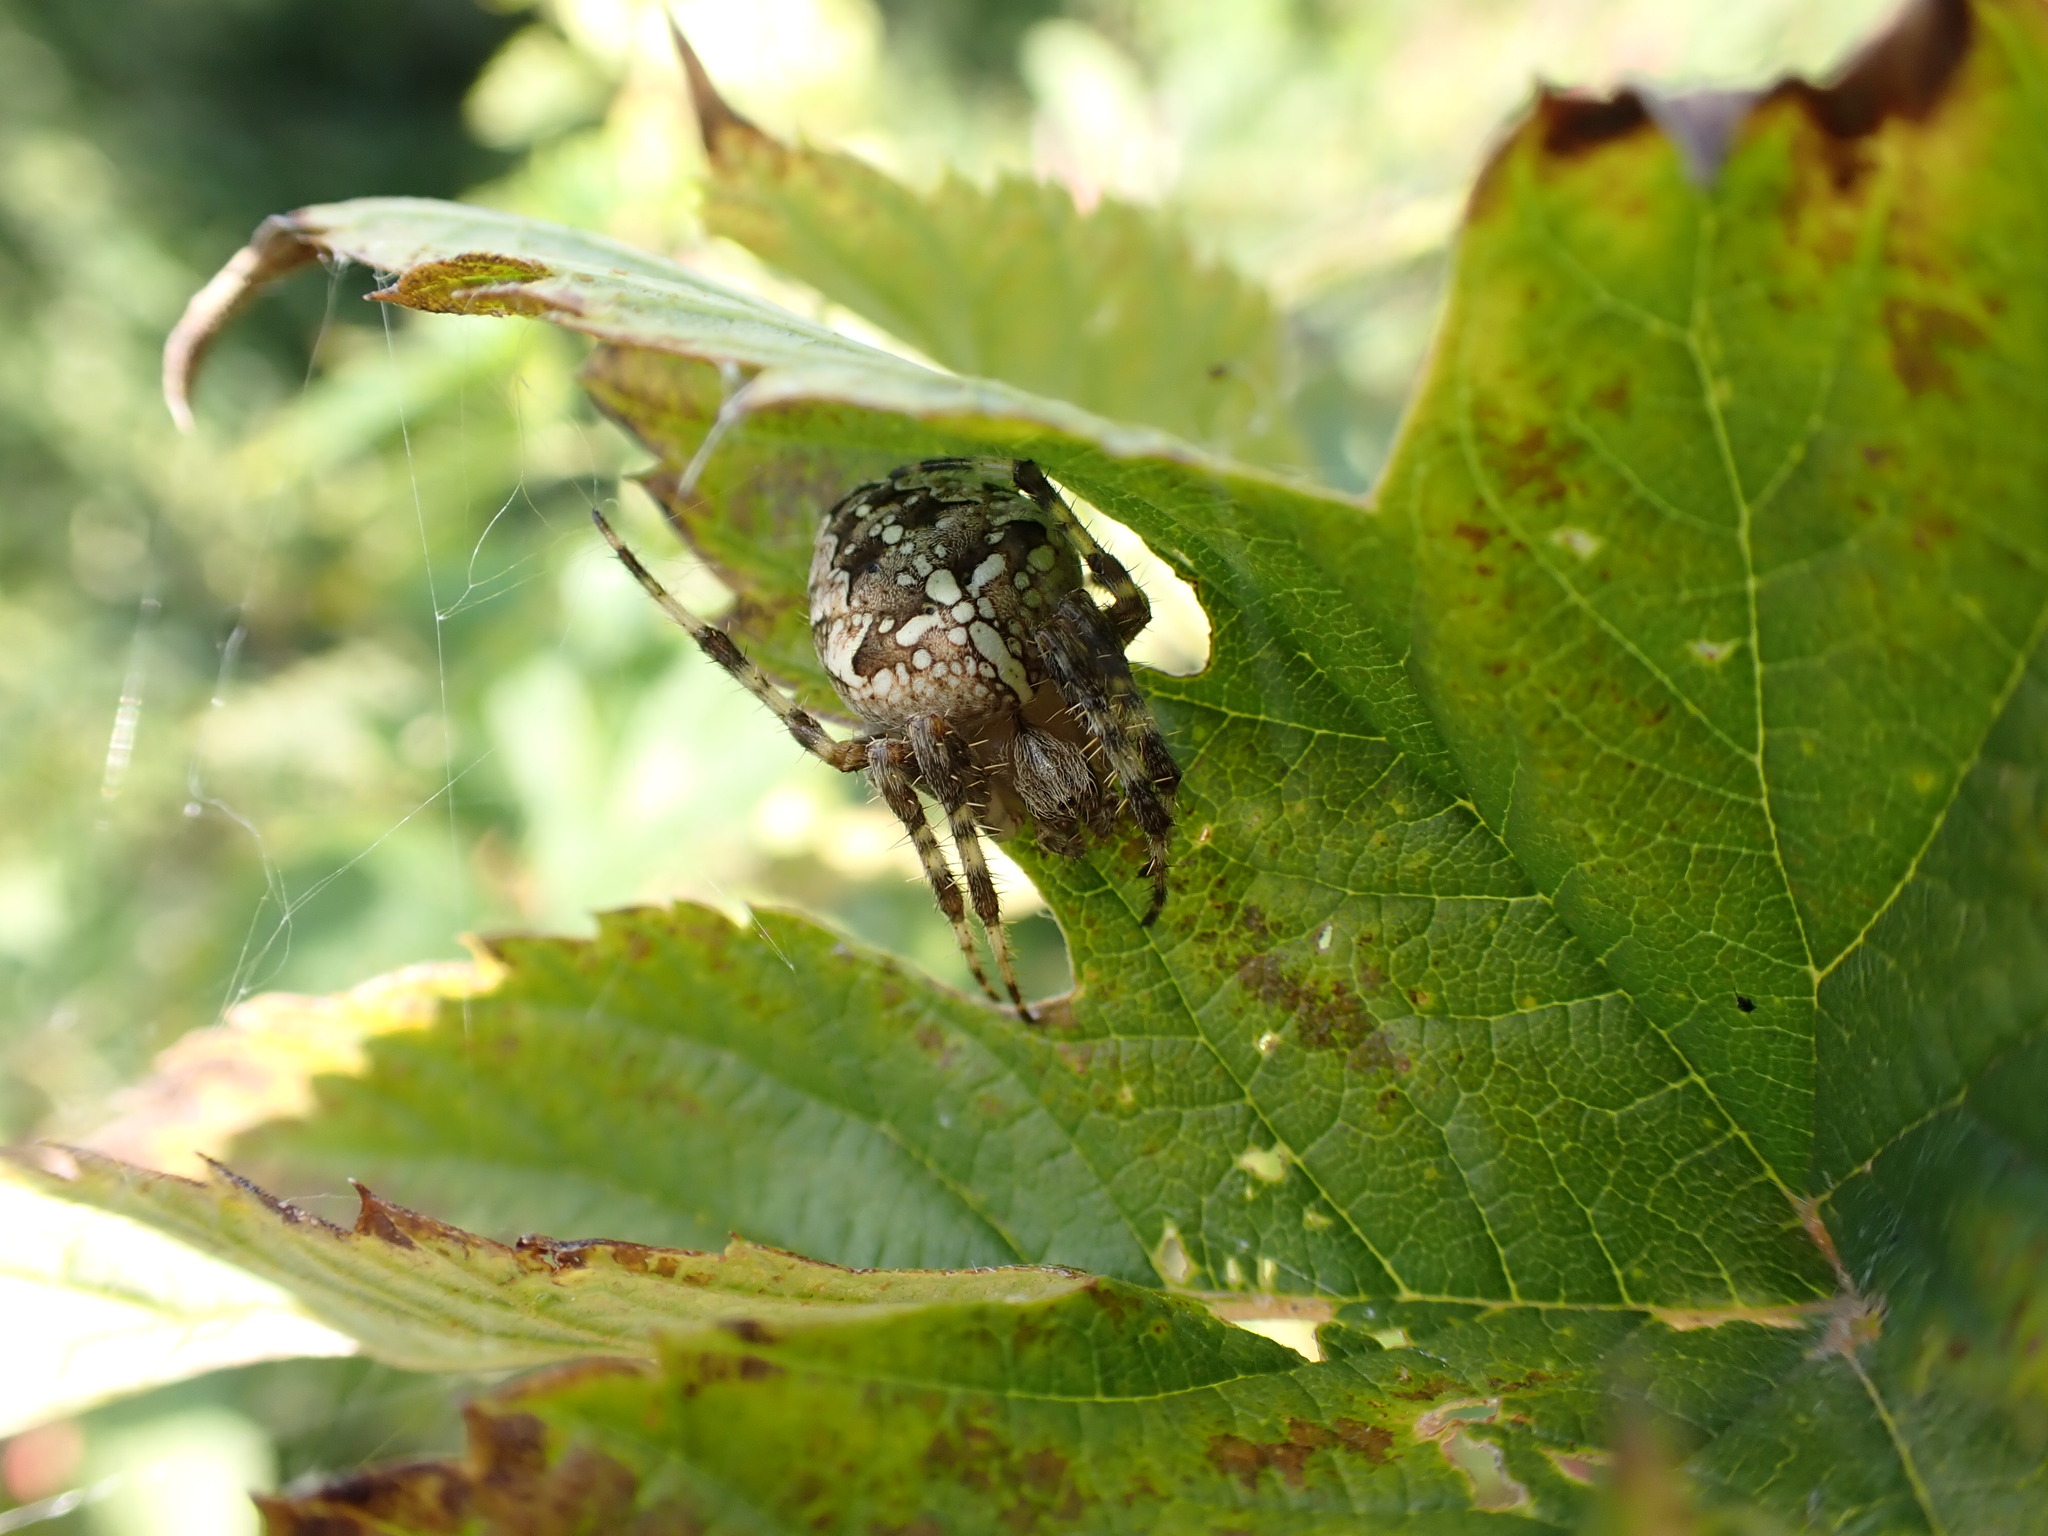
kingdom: Animalia
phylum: Arthropoda
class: Arachnida
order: Araneae
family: Araneidae
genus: Araneus
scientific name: Araneus diadematus
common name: Cross orbweaver
